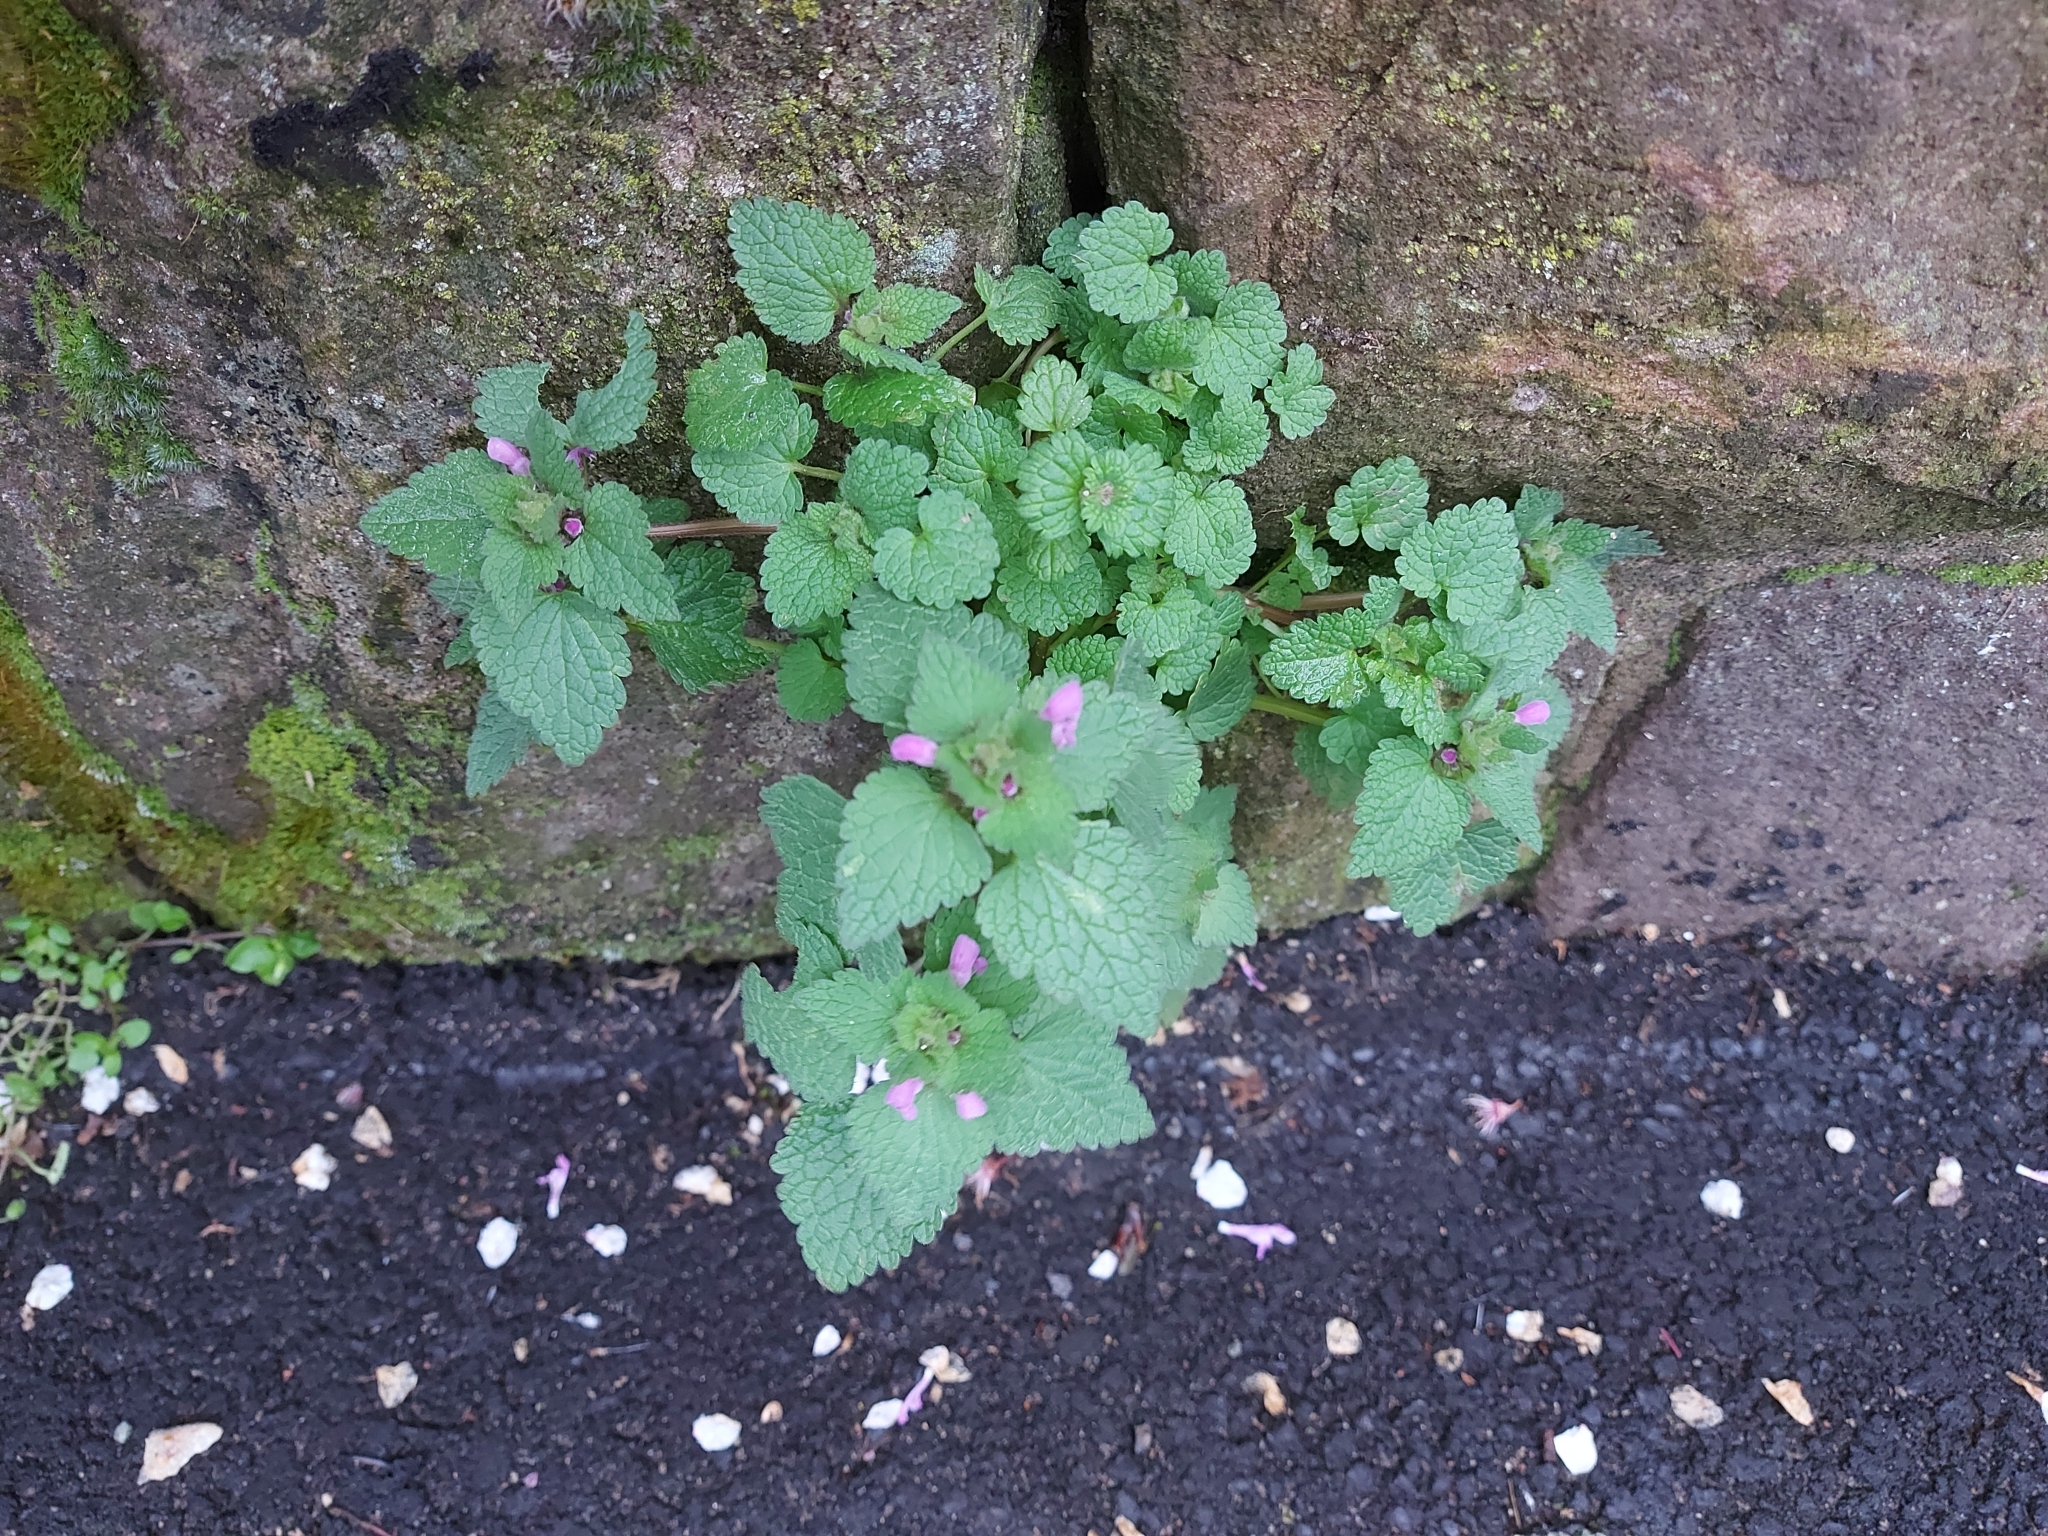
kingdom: Plantae
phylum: Tracheophyta
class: Magnoliopsida
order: Lamiales
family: Lamiaceae
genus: Lamium
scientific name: Lamium purpureum
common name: Red dead-nettle
